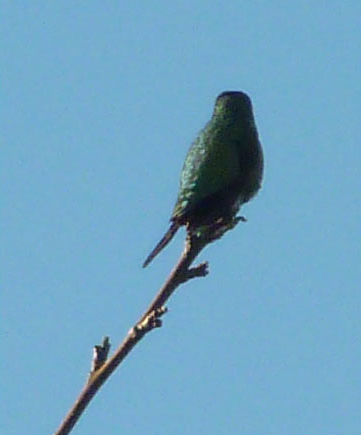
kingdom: Animalia
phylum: Chordata
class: Aves
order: Apodiformes
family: Trochilidae
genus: Archilochus
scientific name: Archilochus colubris
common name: Ruby-throated hummingbird
